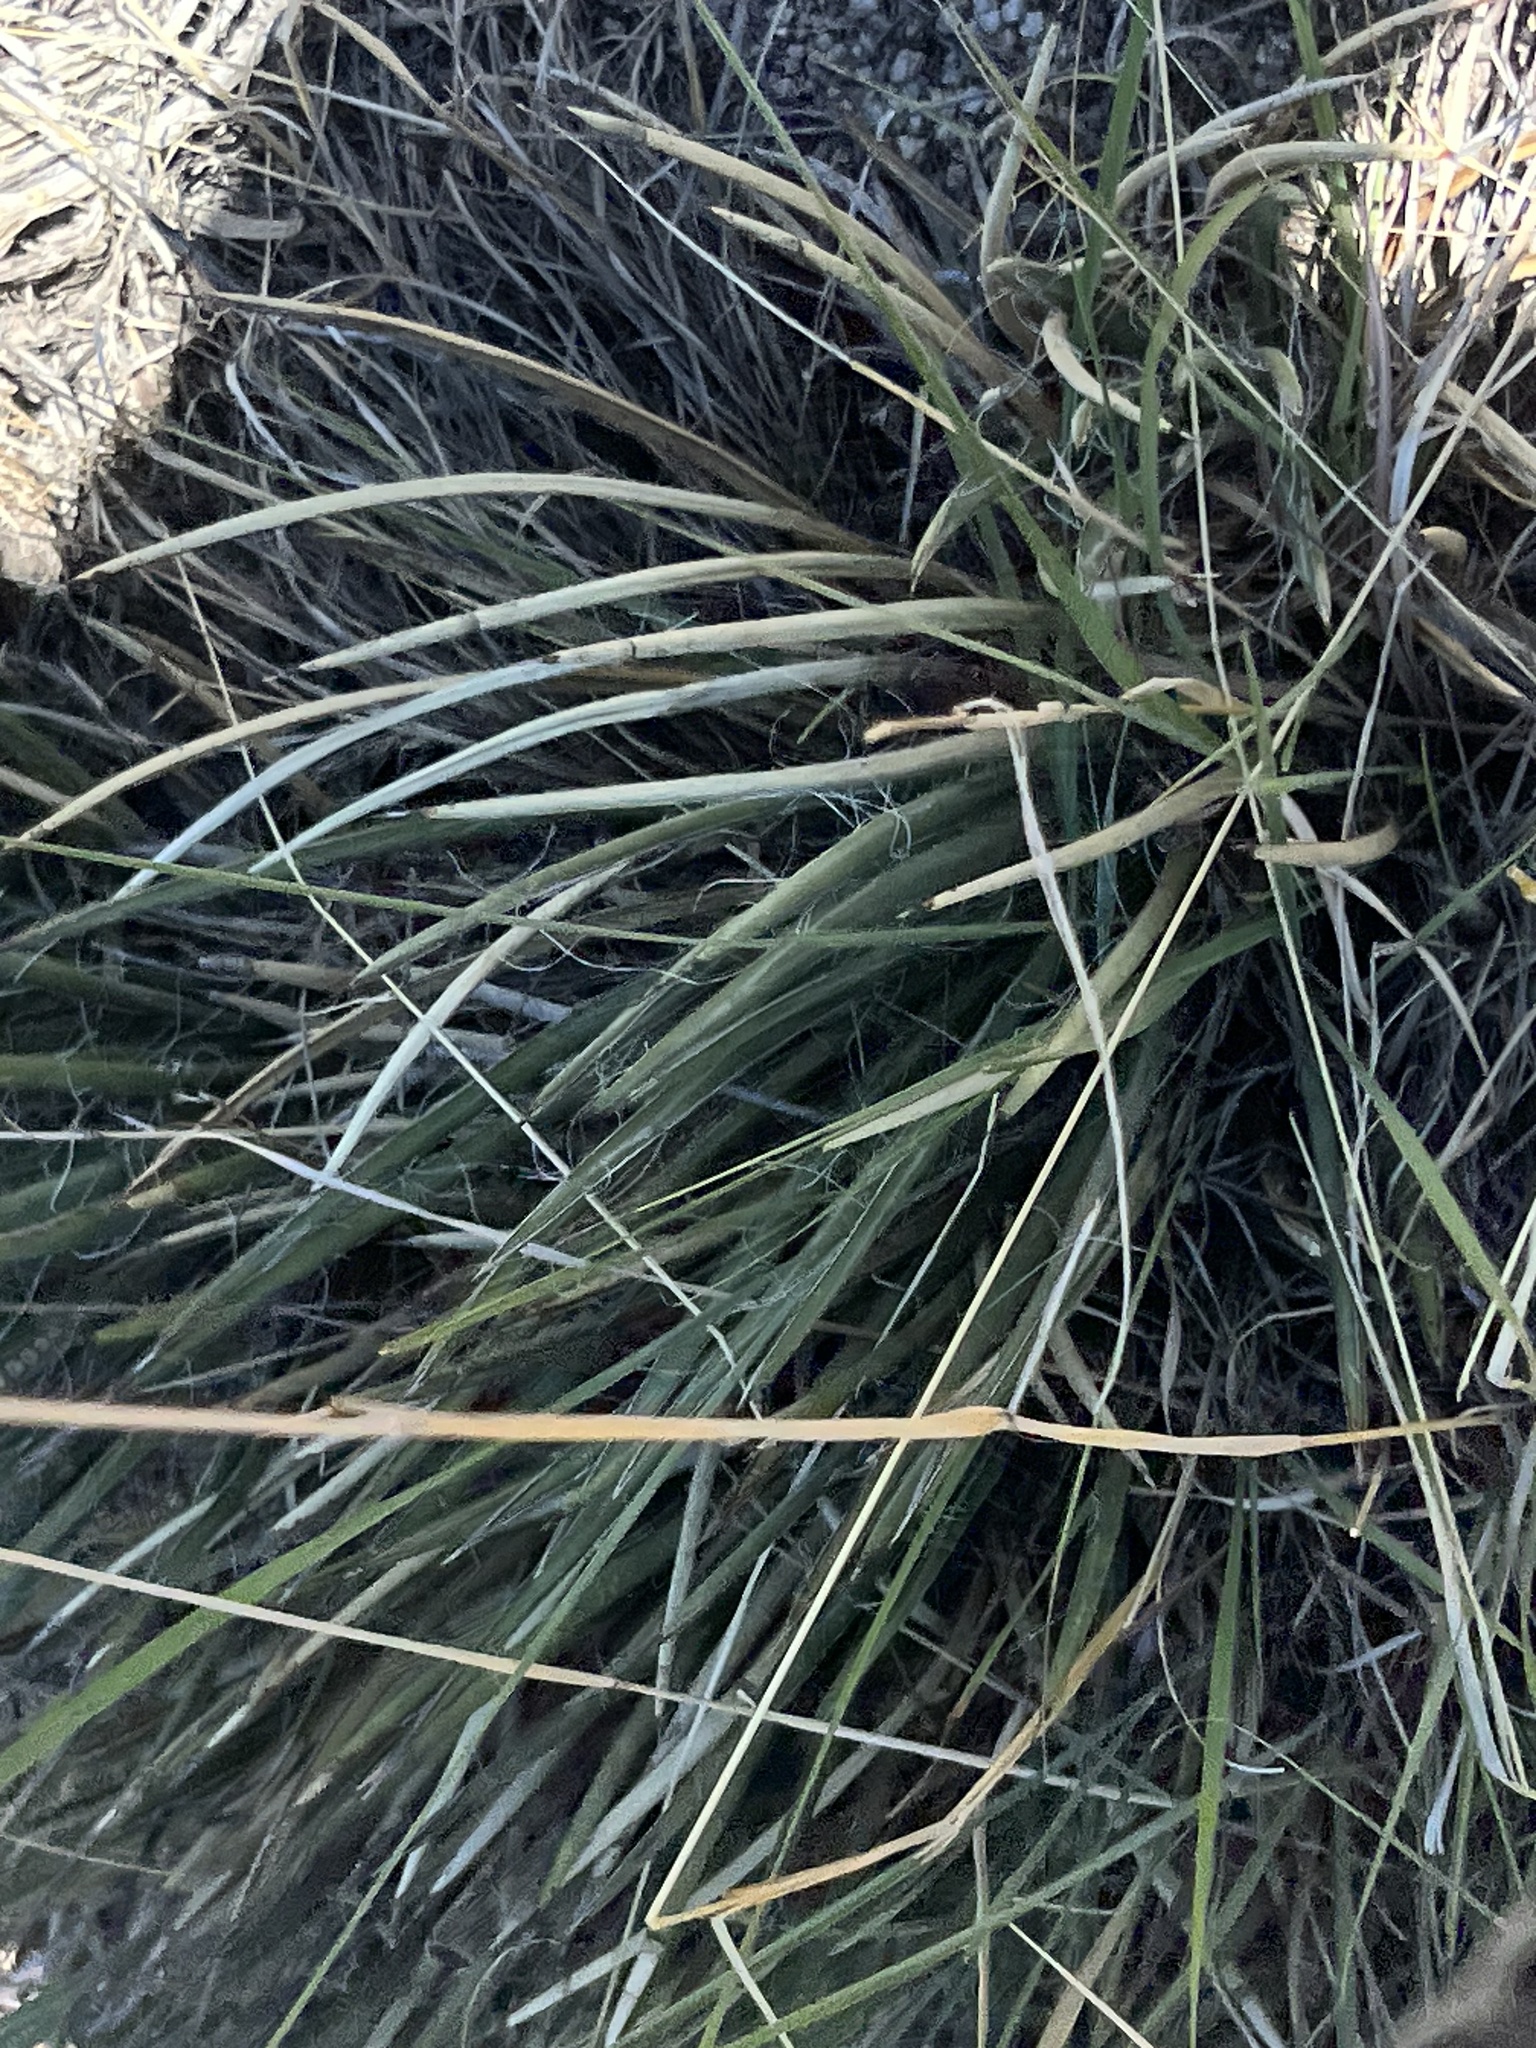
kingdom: Plantae
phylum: Tracheophyta
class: Liliopsida
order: Asparagales
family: Asparagaceae
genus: Agave
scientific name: Agave schottii
